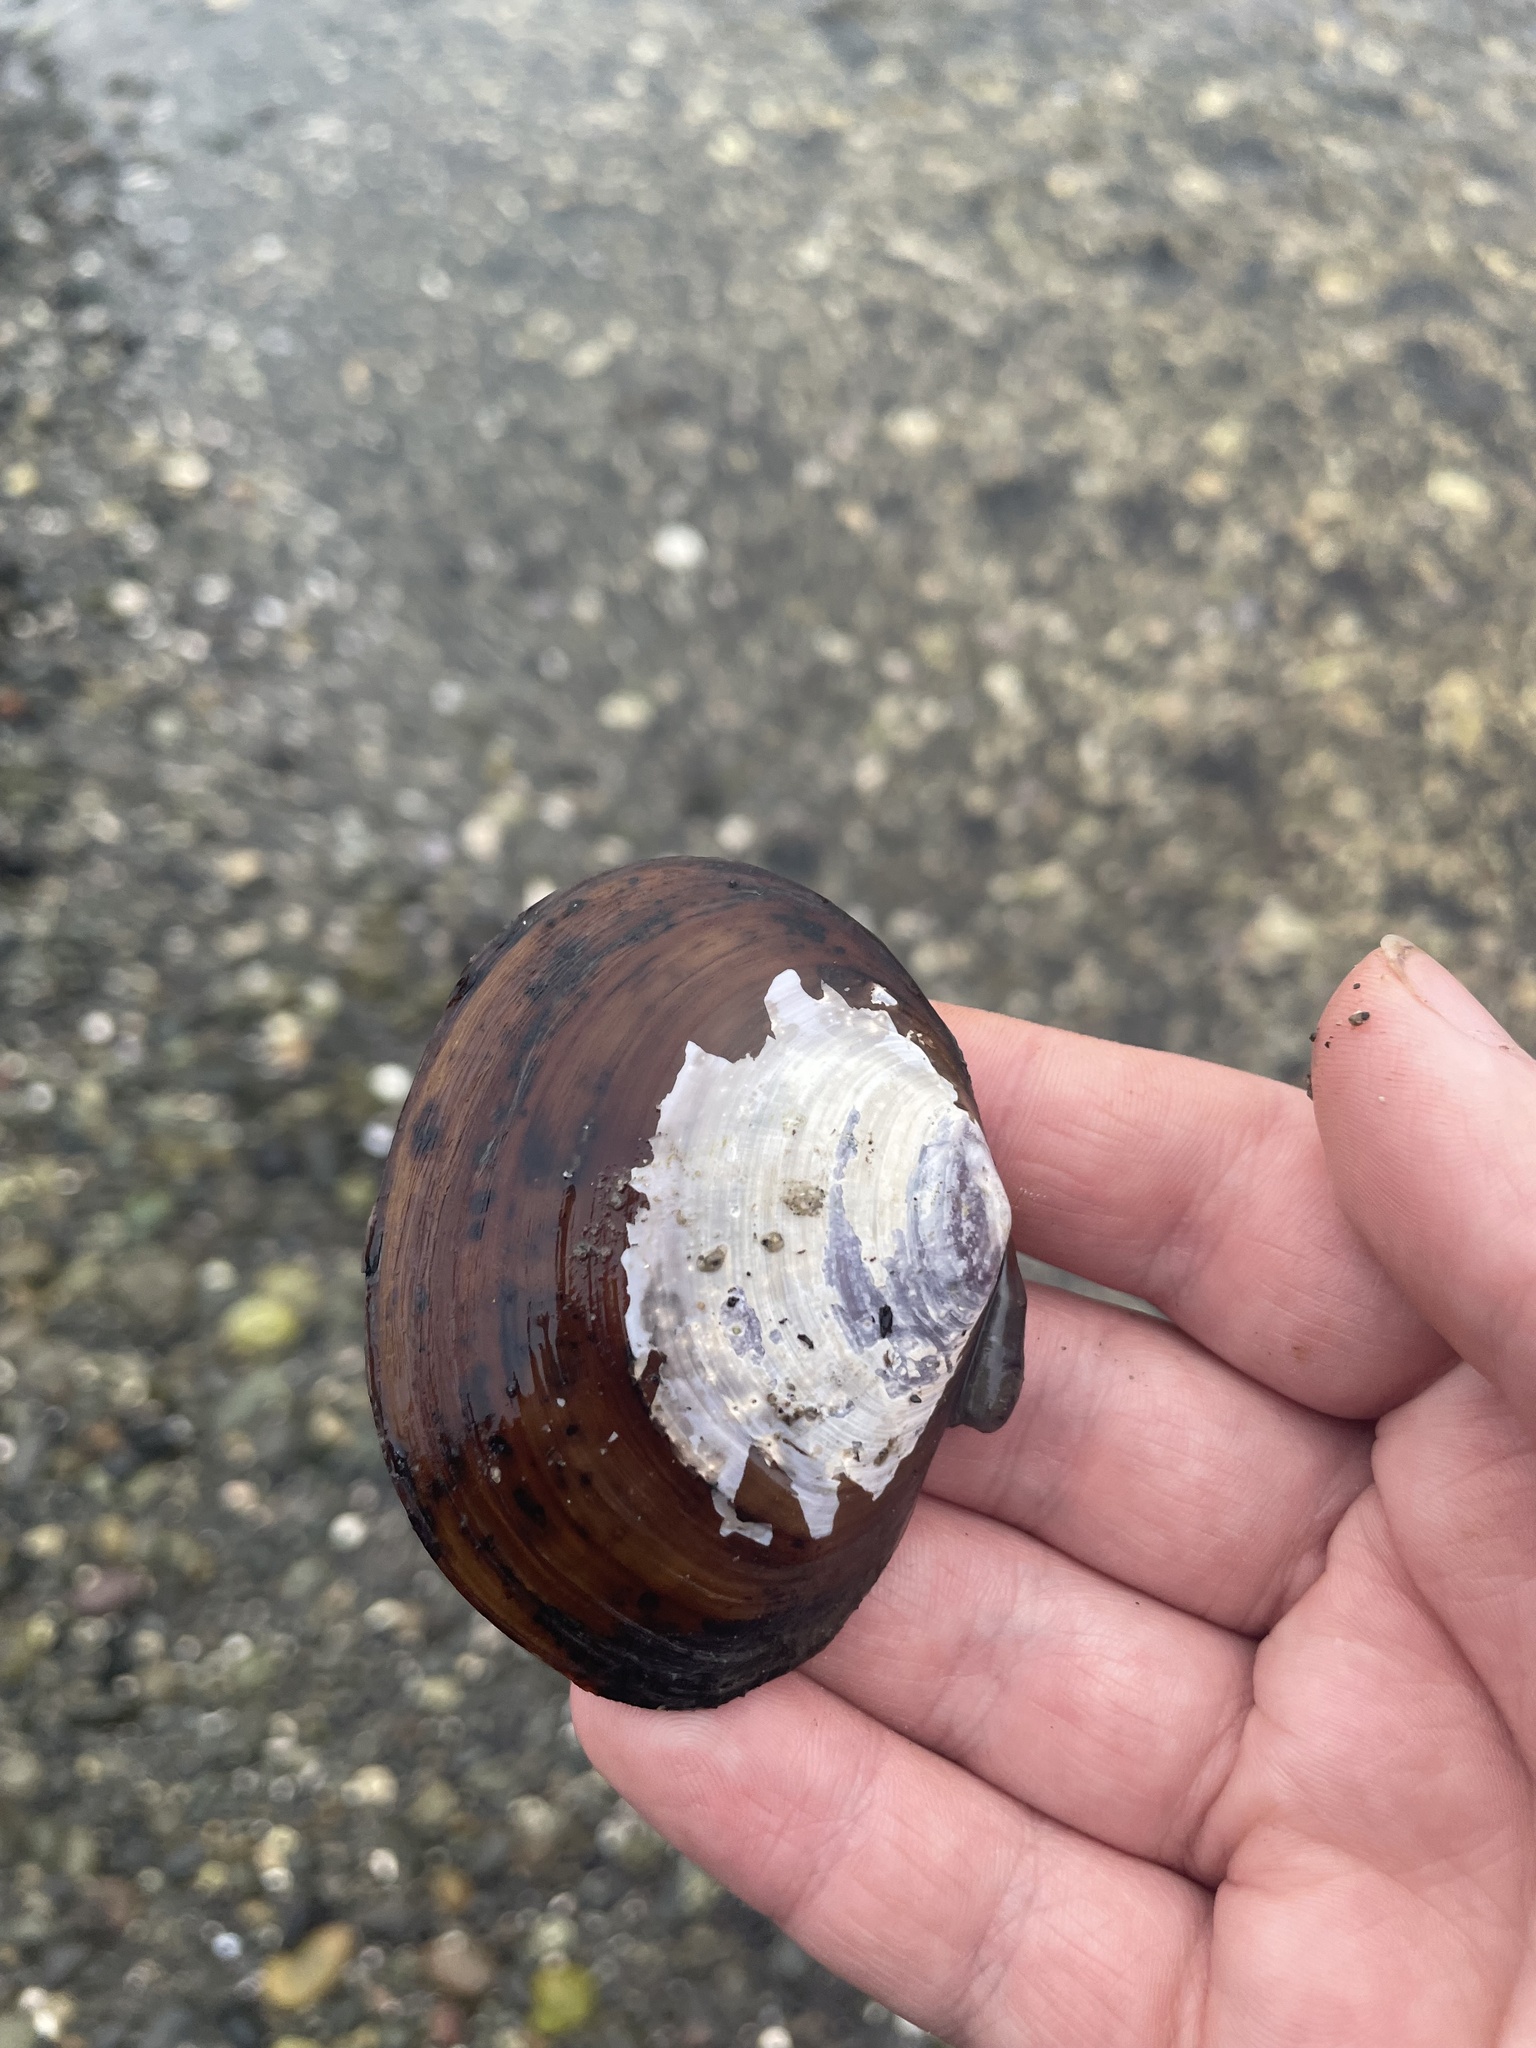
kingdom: Animalia
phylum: Mollusca
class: Bivalvia
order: Cardiida
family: Psammobiidae
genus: Nuttallia
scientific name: Nuttallia obscurata
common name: Purple mahogany-clam
